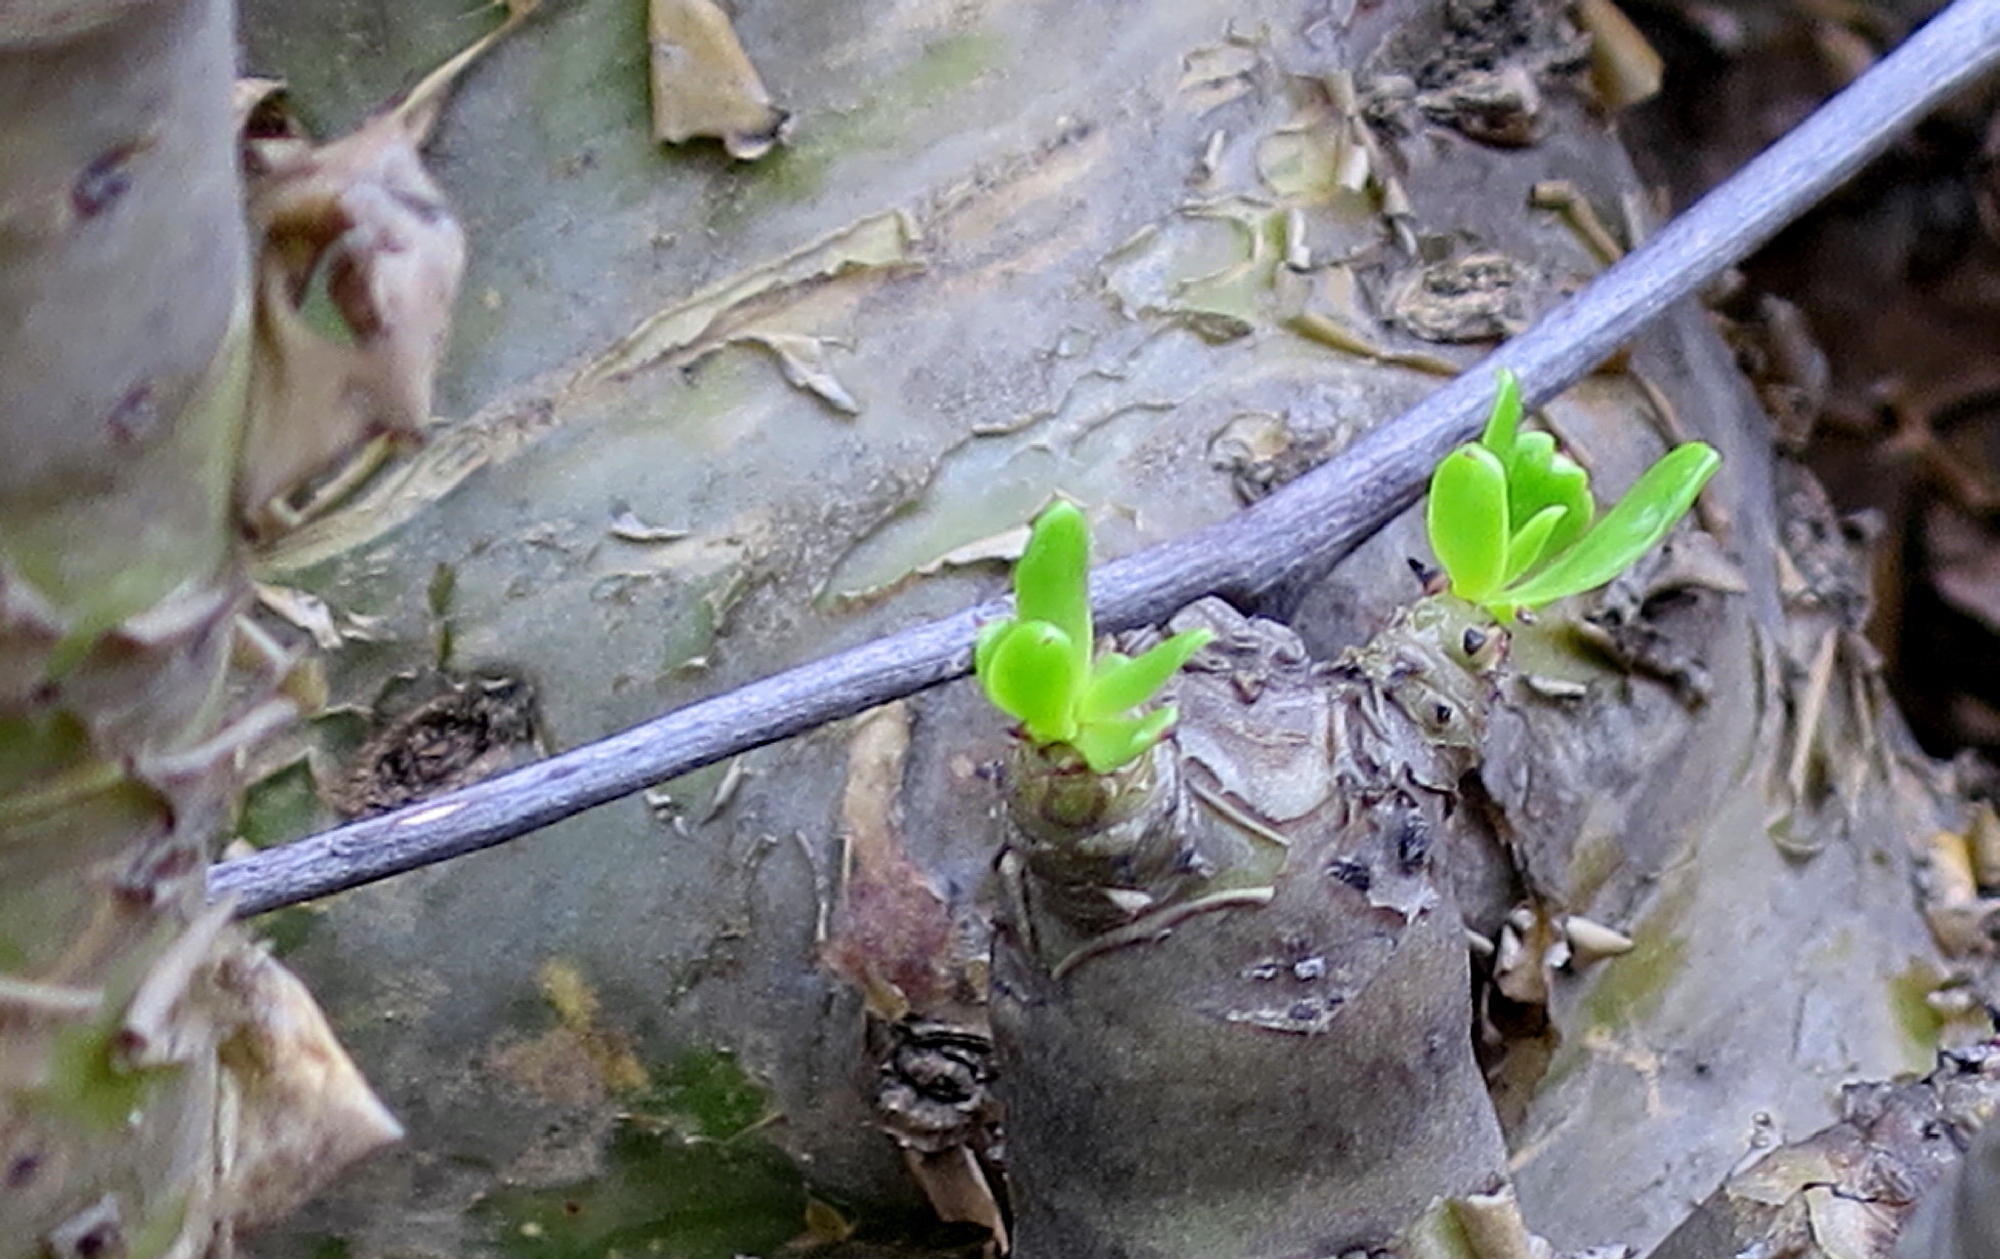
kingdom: Plantae
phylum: Tracheophyta
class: Magnoliopsida
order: Saxifragales
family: Crassulaceae
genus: Tylecodon
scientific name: Tylecodon paniculatus
